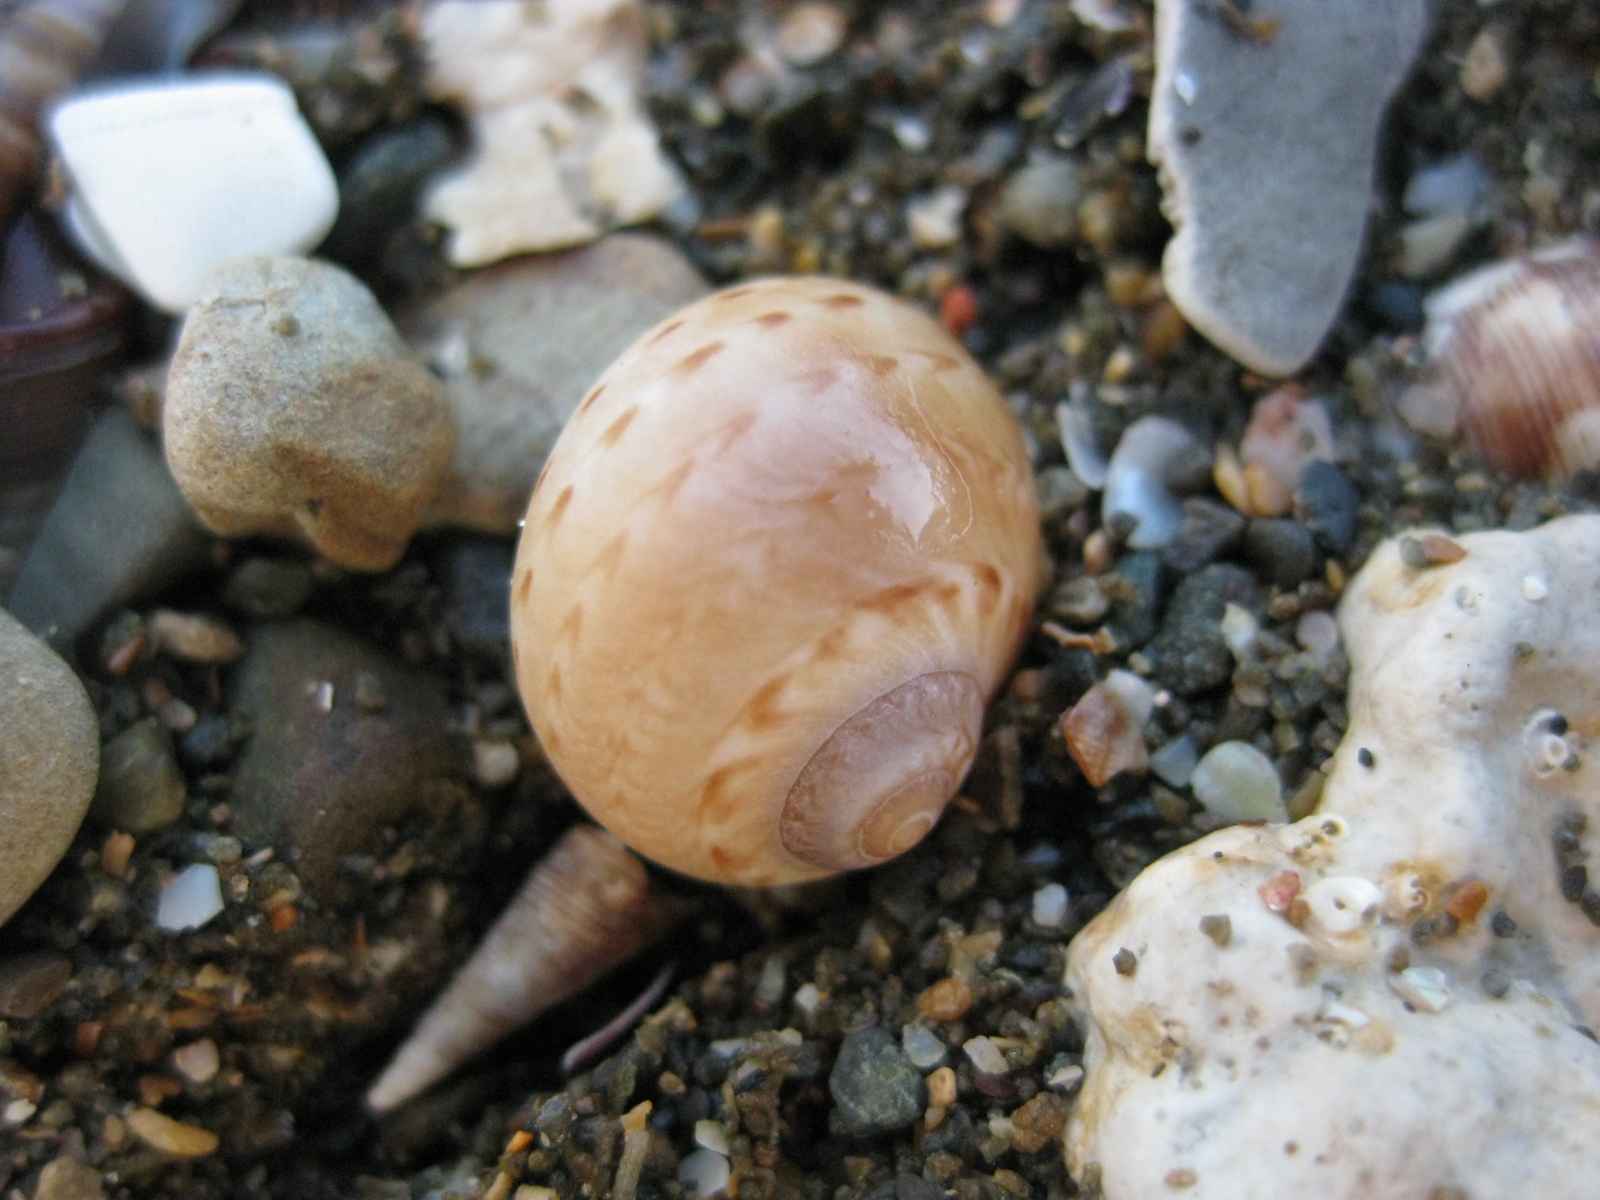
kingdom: Animalia
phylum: Mollusca
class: Gastropoda
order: Littorinimorpha
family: Naticidae
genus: Tanea
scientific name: Tanea zelandica
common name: New zealand moonsnail
